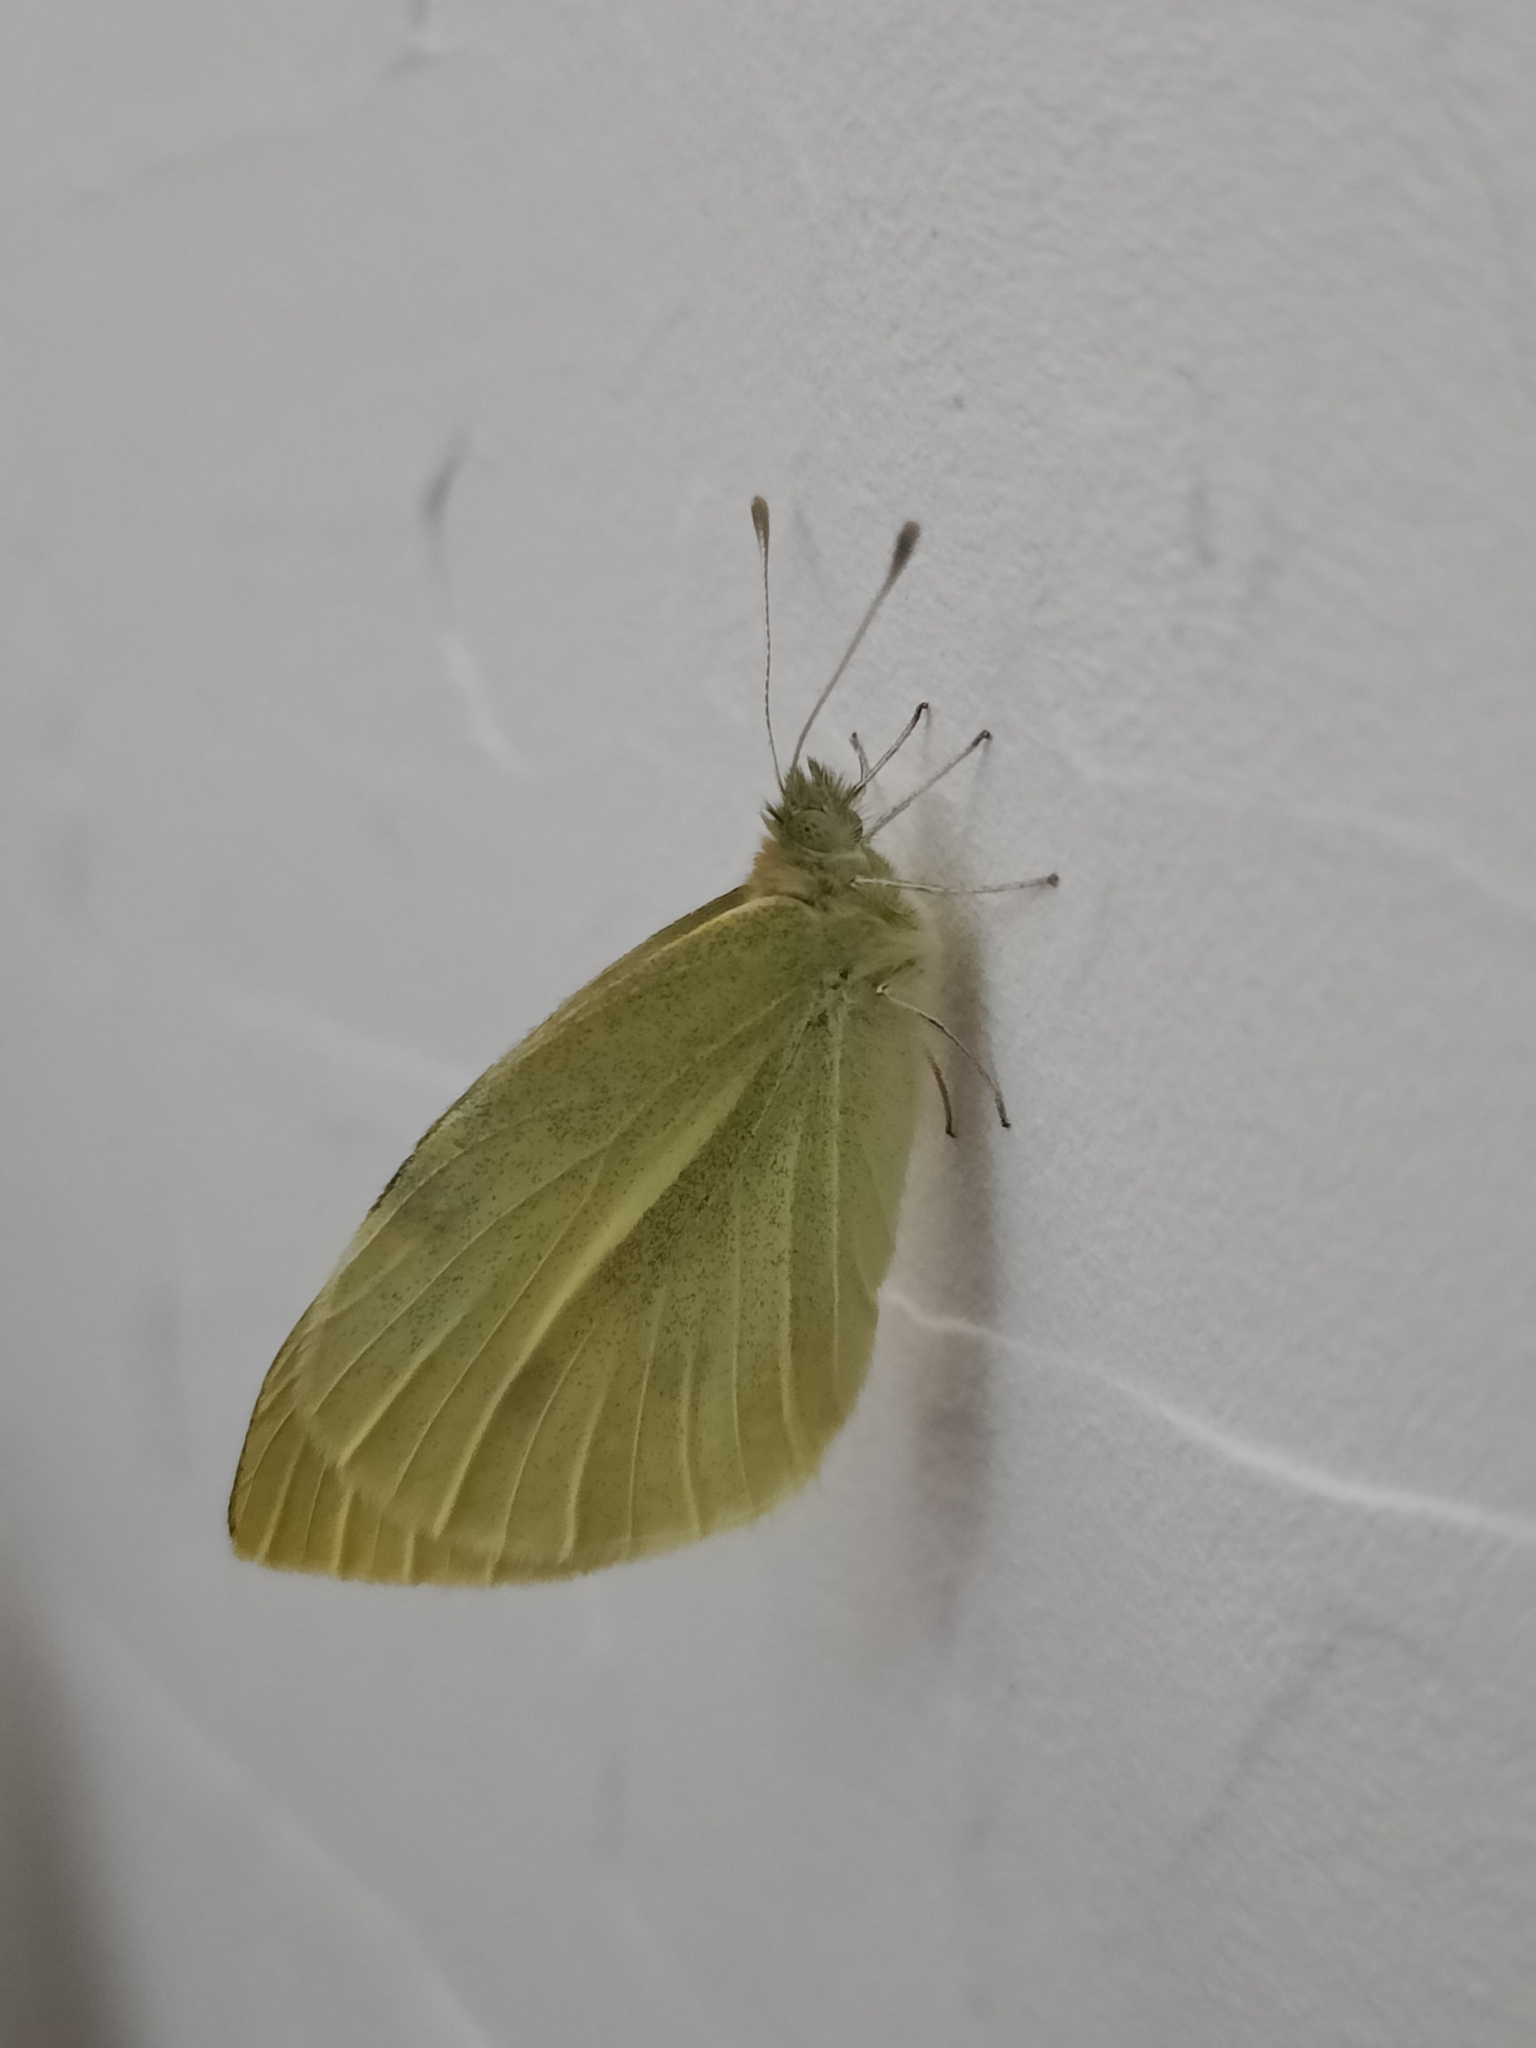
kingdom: Animalia
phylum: Arthropoda
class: Insecta
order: Lepidoptera
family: Pieridae
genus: Pieris
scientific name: Pieris rapae
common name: Small white
